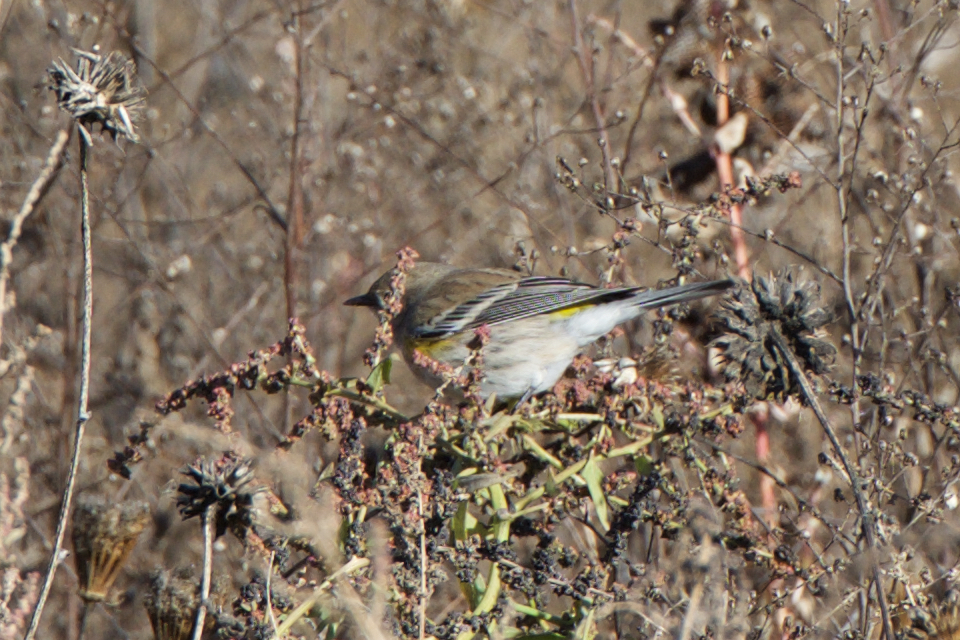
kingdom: Animalia
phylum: Chordata
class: Aves
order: Passeriformes
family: Parulidae
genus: Setophaga
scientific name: Setophaga coronata
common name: Myrtle warbler
